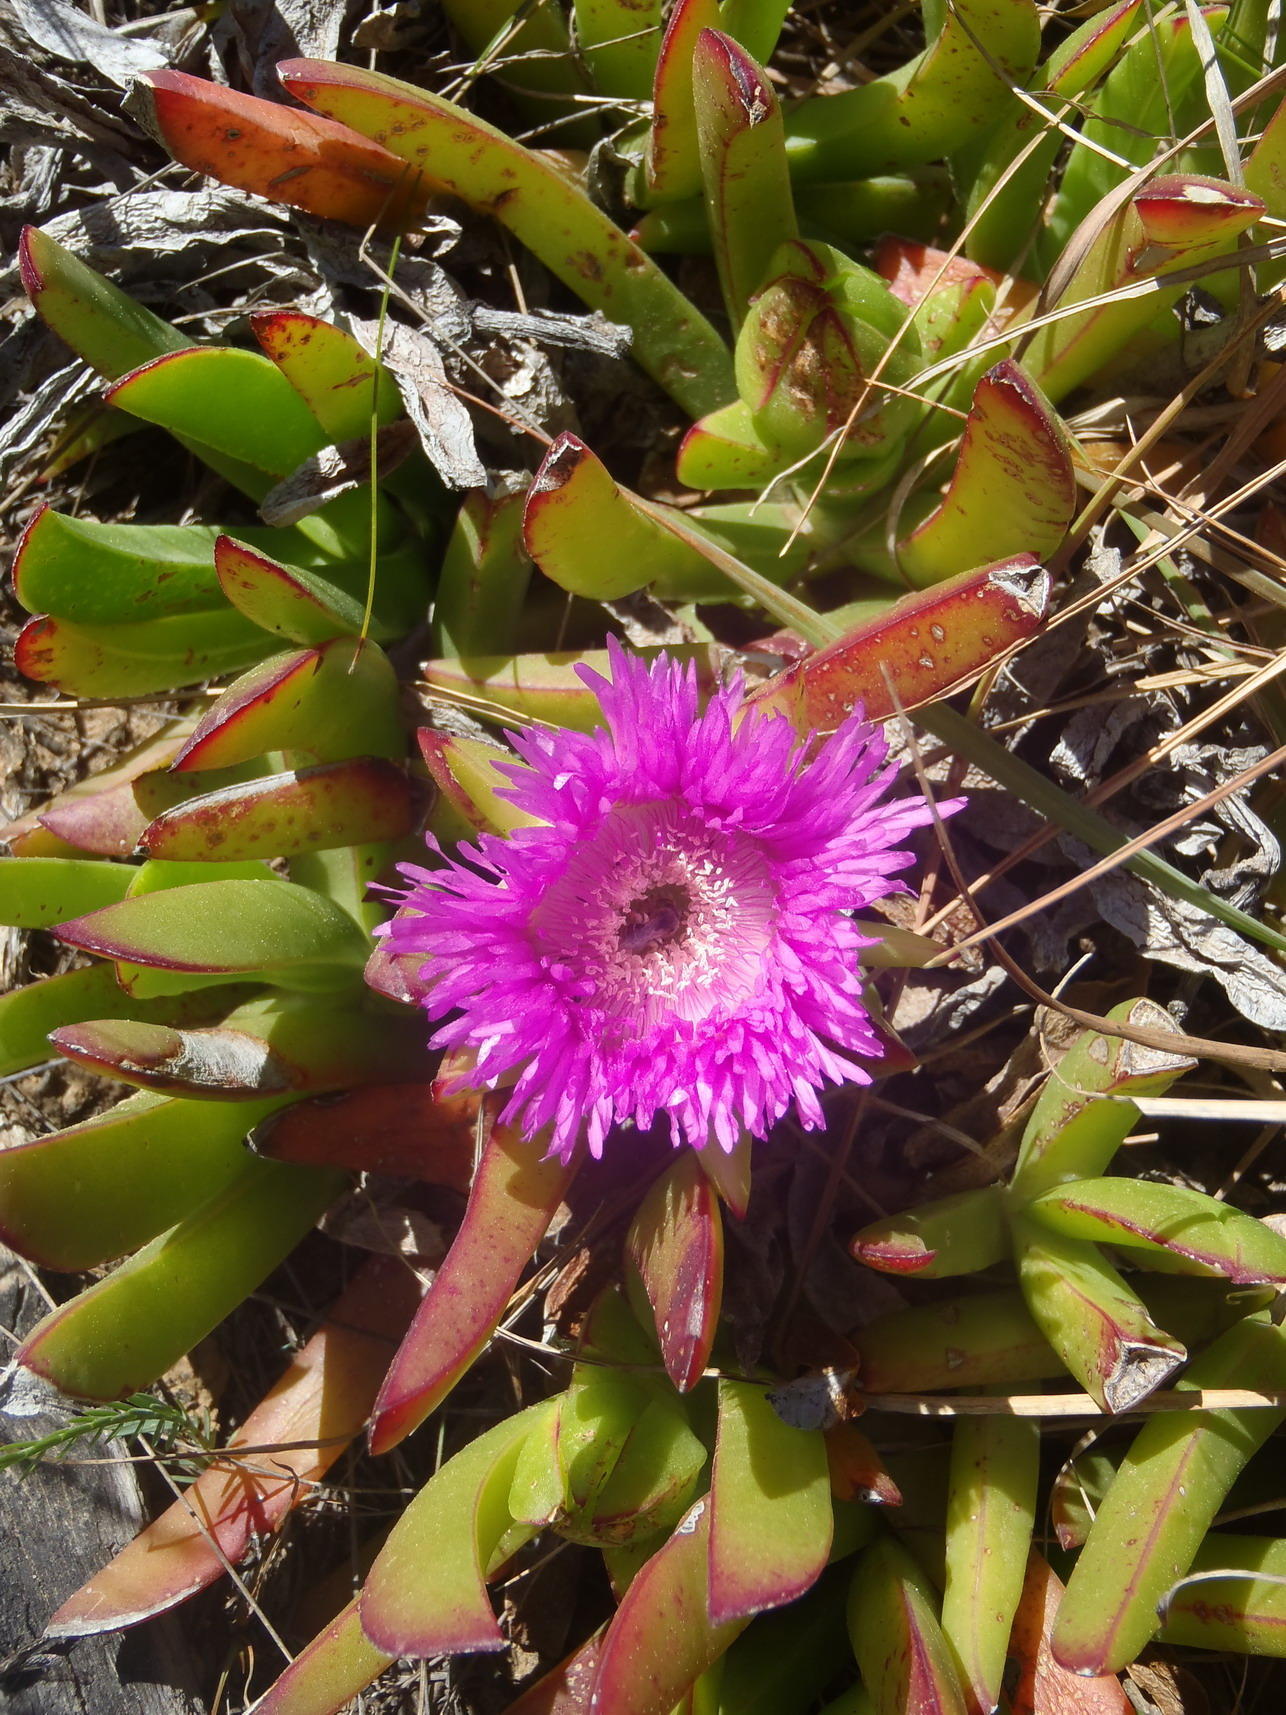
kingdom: Plantae
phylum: Tracheophyta
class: Magnoliopsida
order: Caryophyllales
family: Aizoaceae
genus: Carpobrotus
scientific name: Carpobrotus deliciosus
